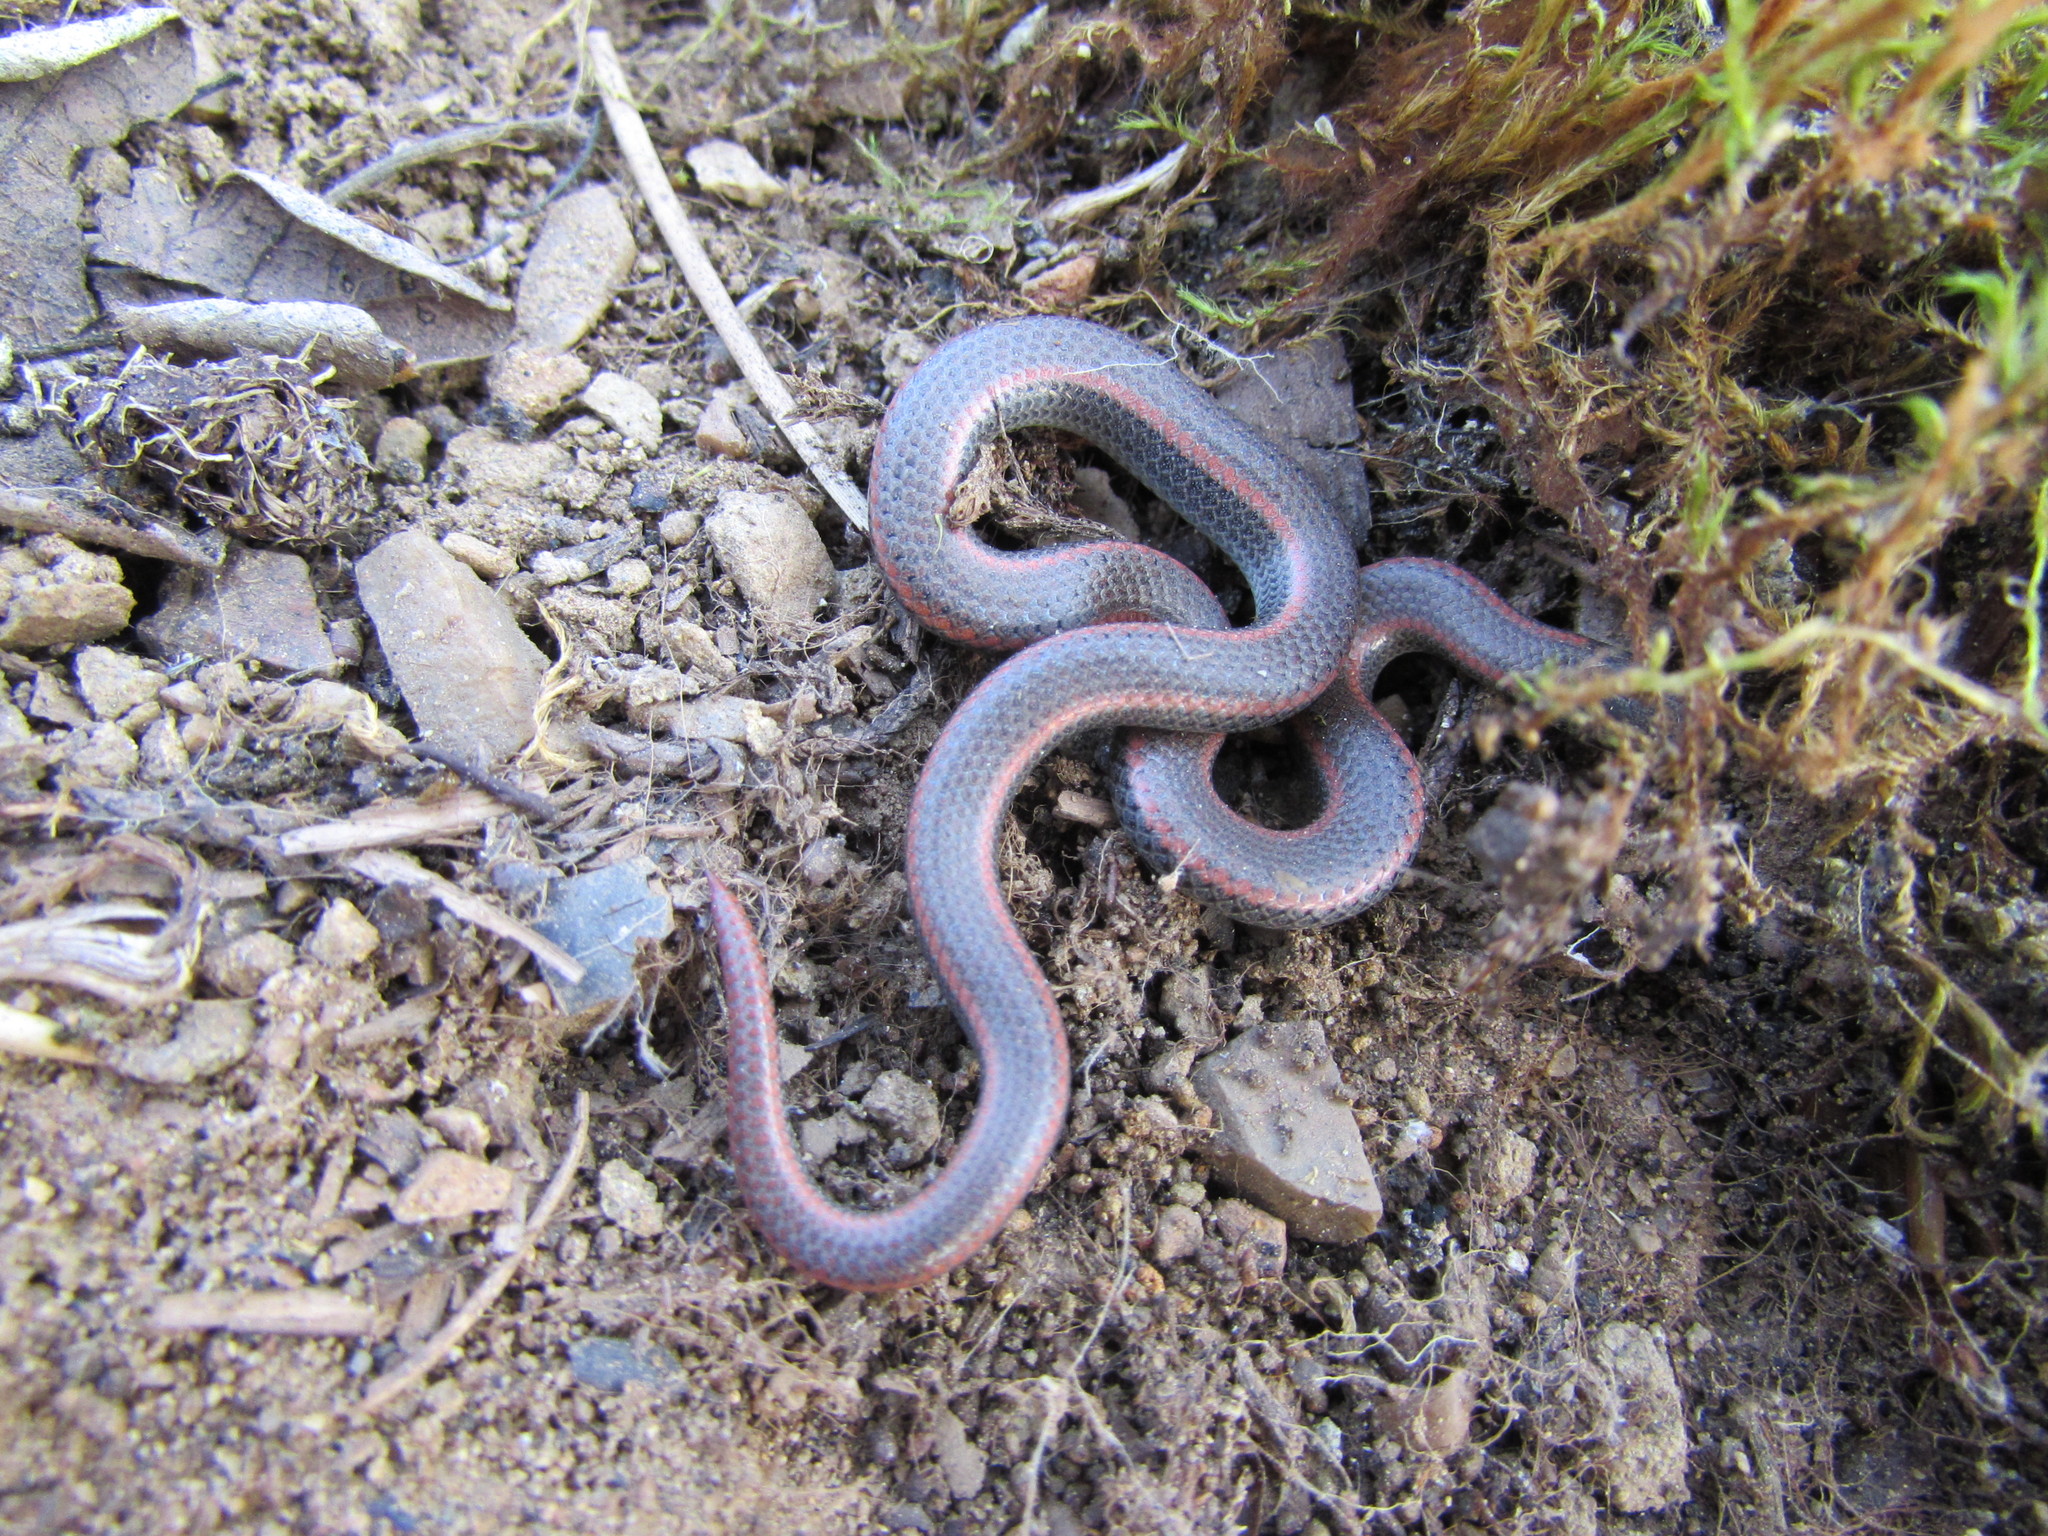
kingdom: Animalia
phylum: Chordata
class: Squamata
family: Colubridae
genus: Contia
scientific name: Contia tenuis
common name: Sharptail snake
